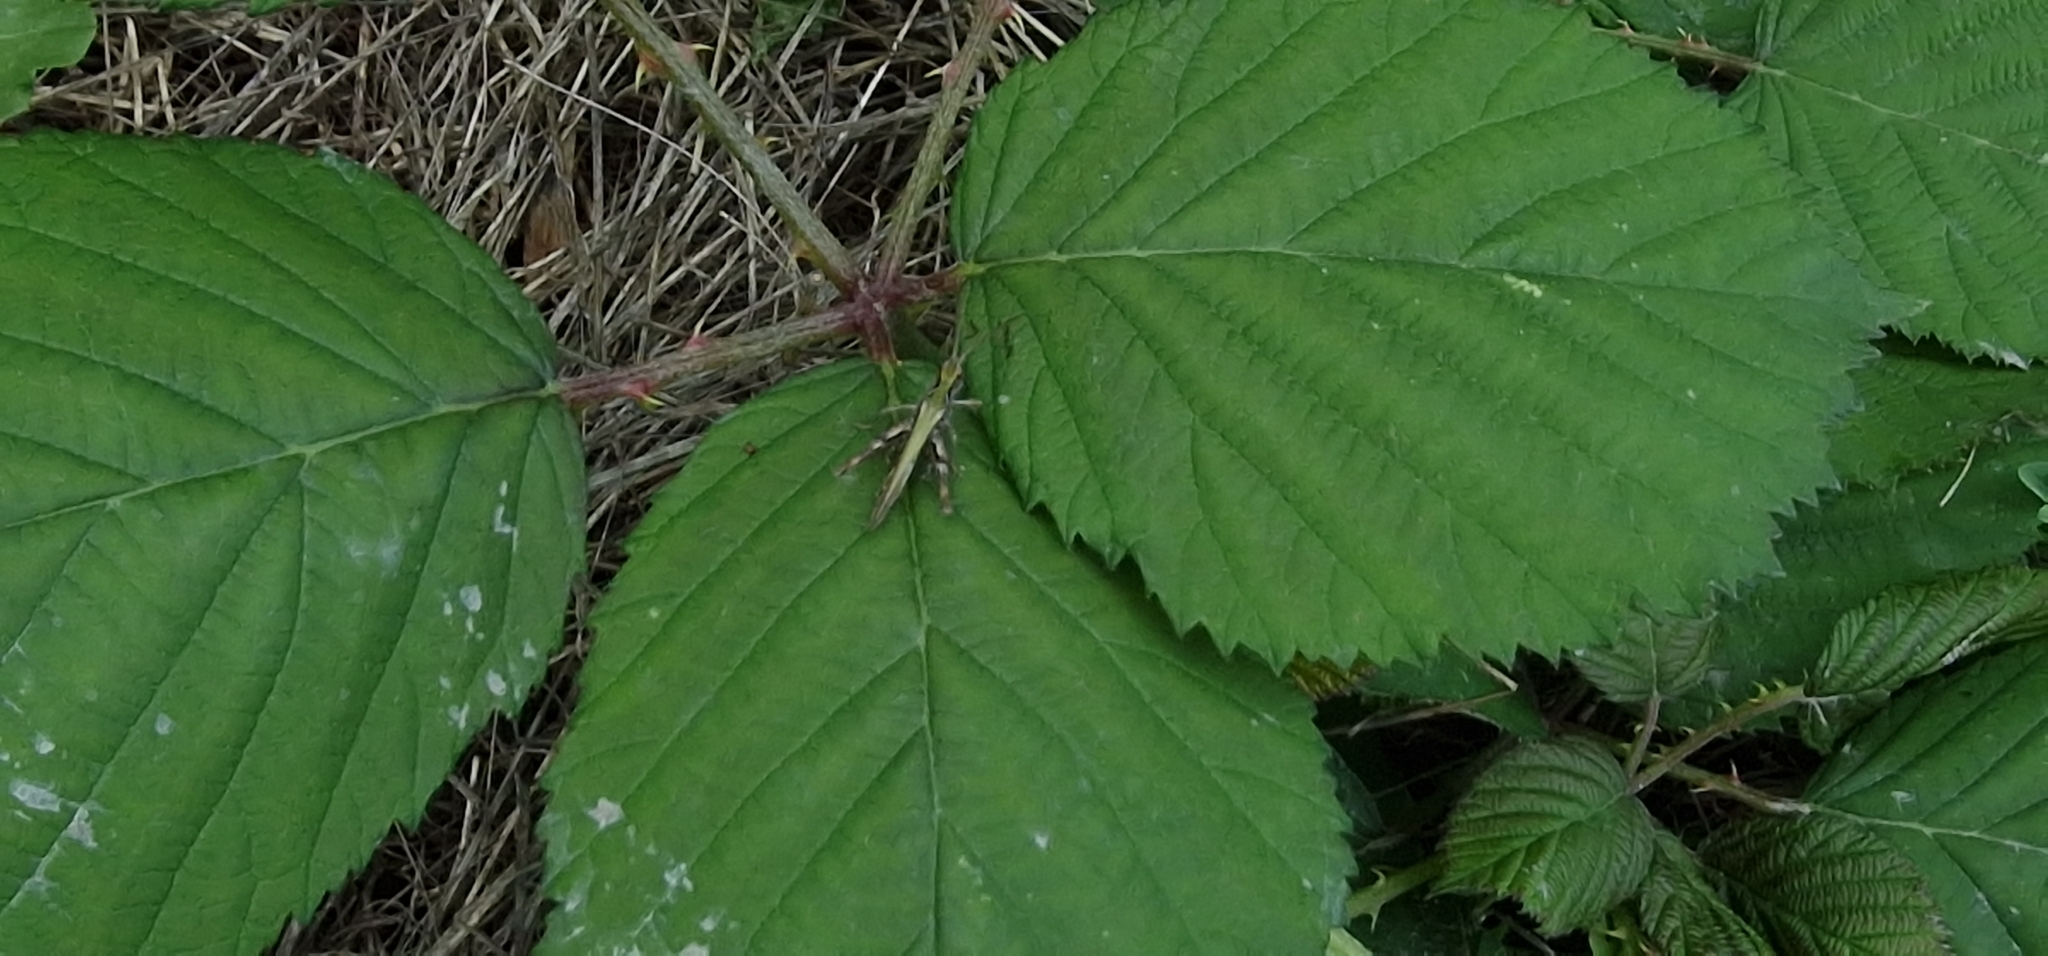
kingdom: Animalia
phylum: Arthropoda
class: Insecta
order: Orthoptera
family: Acrididae
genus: Chorthippus
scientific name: Chorthippus brunneus
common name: Field grasshopper
